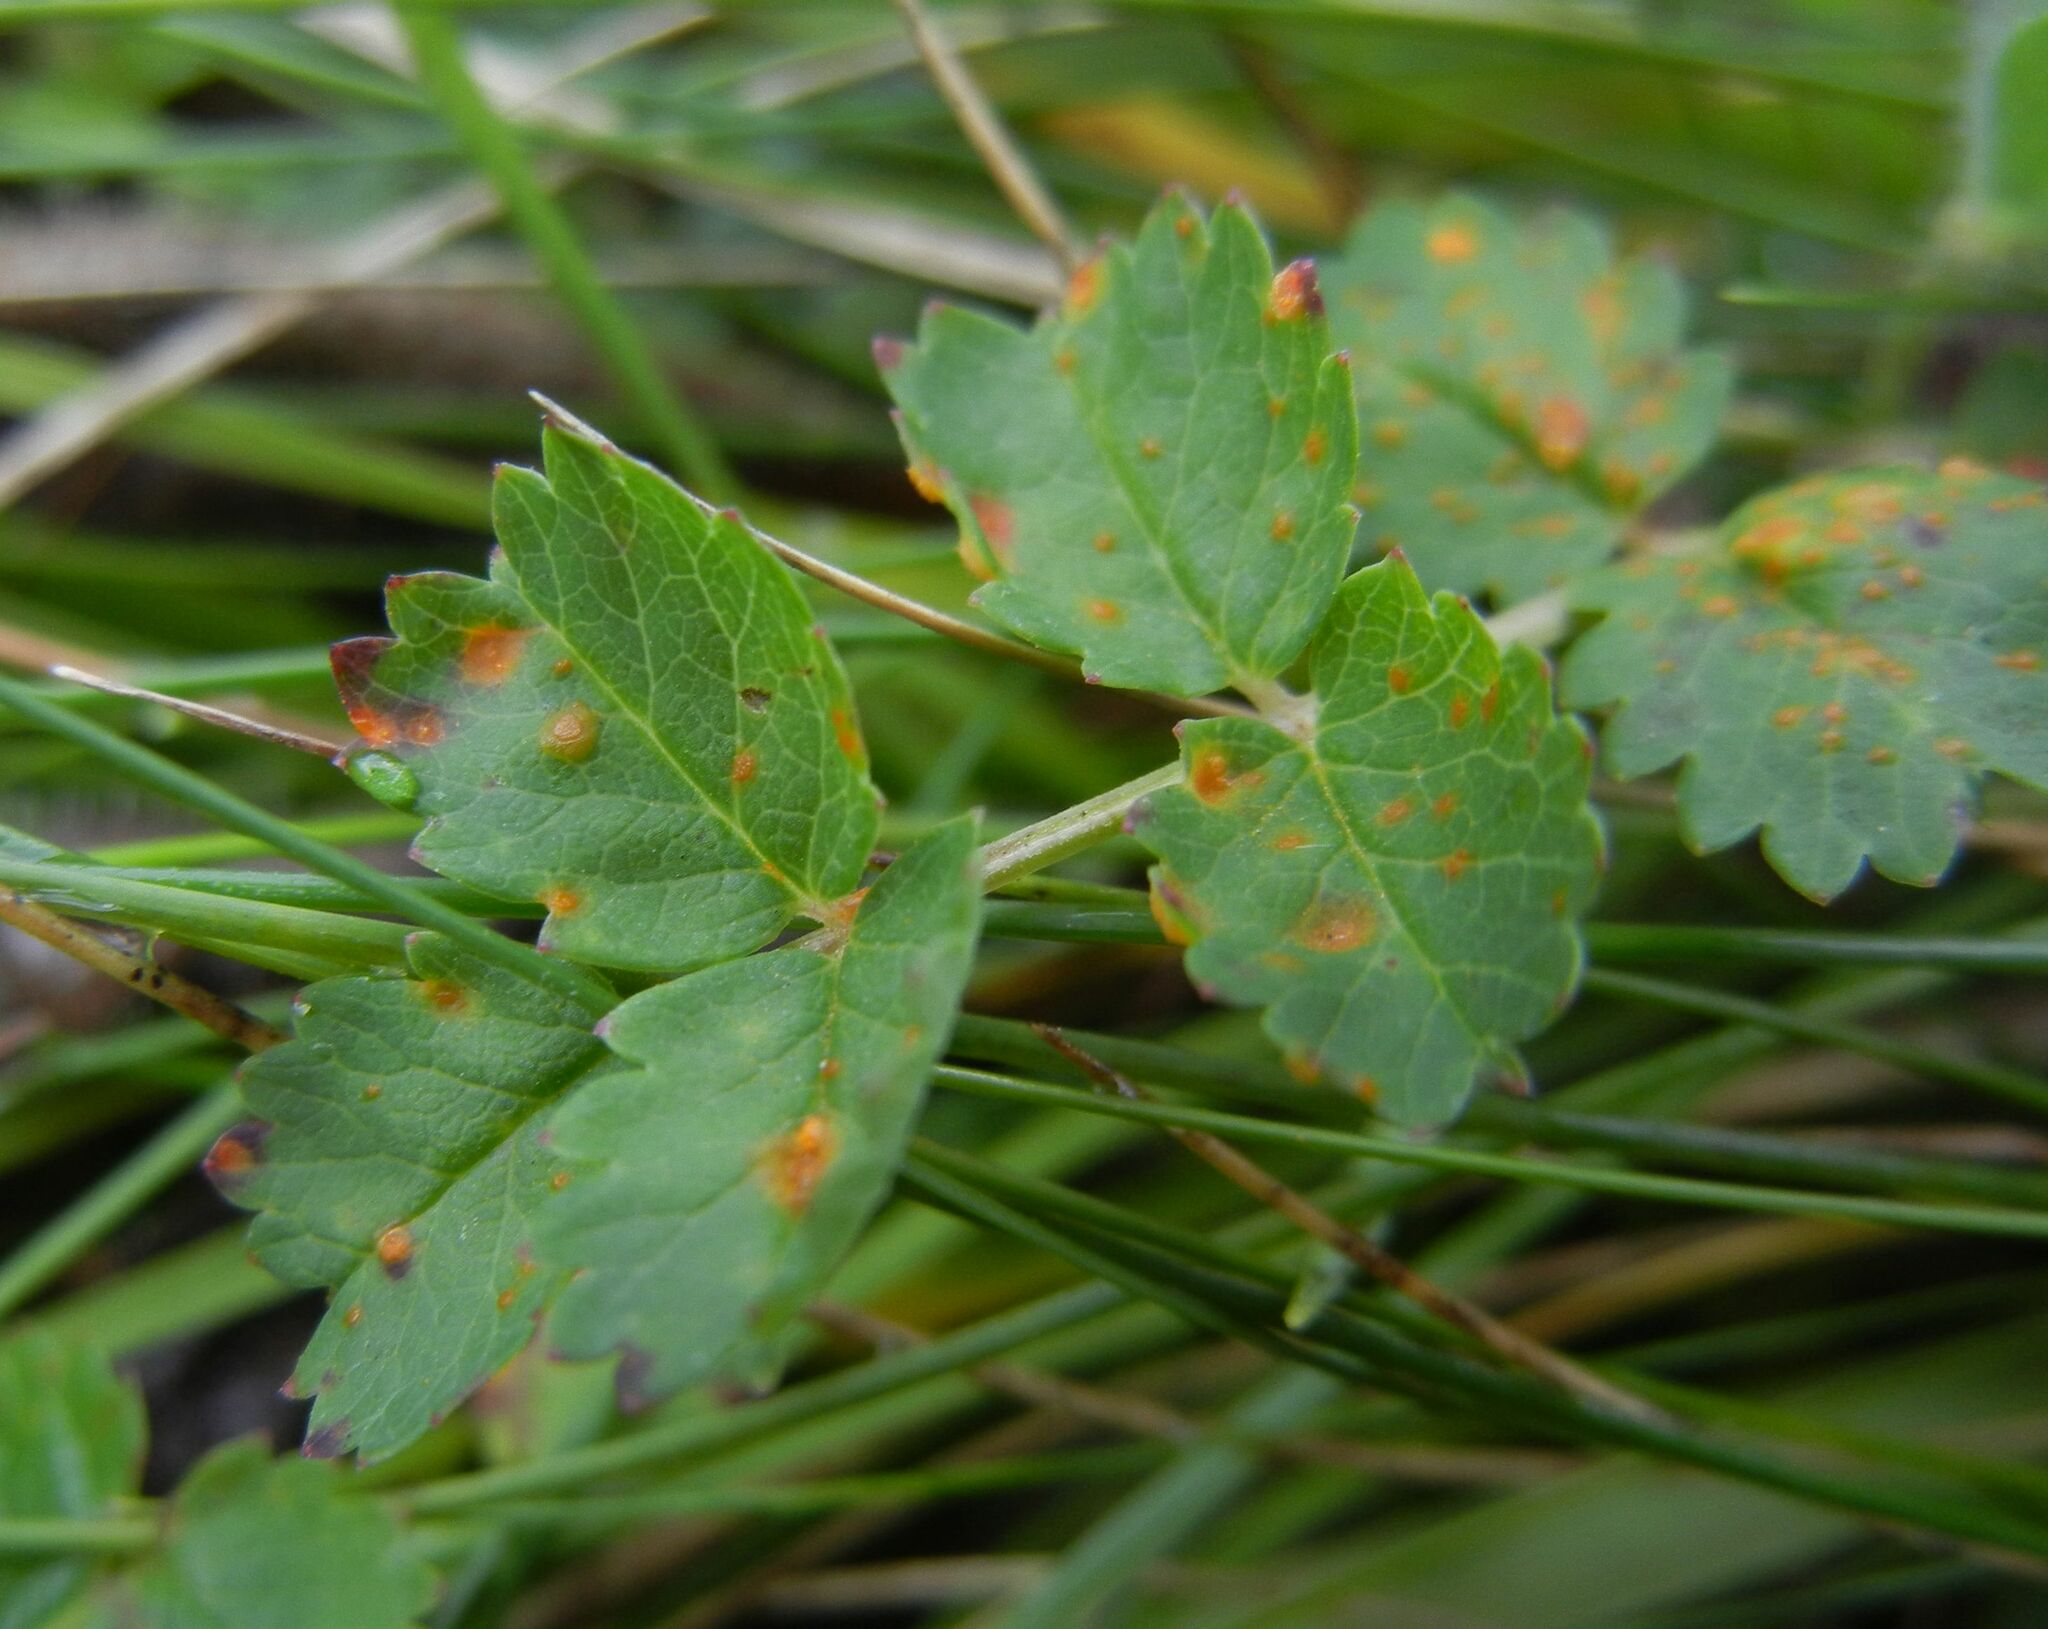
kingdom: Fungi
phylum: Basidiomycota
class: Pucciniomycetes
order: Pucciniales
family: Phragmidiaceae
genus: Phragmidium
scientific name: Phragmidium sanguisorbae
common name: Salad burnet rust
